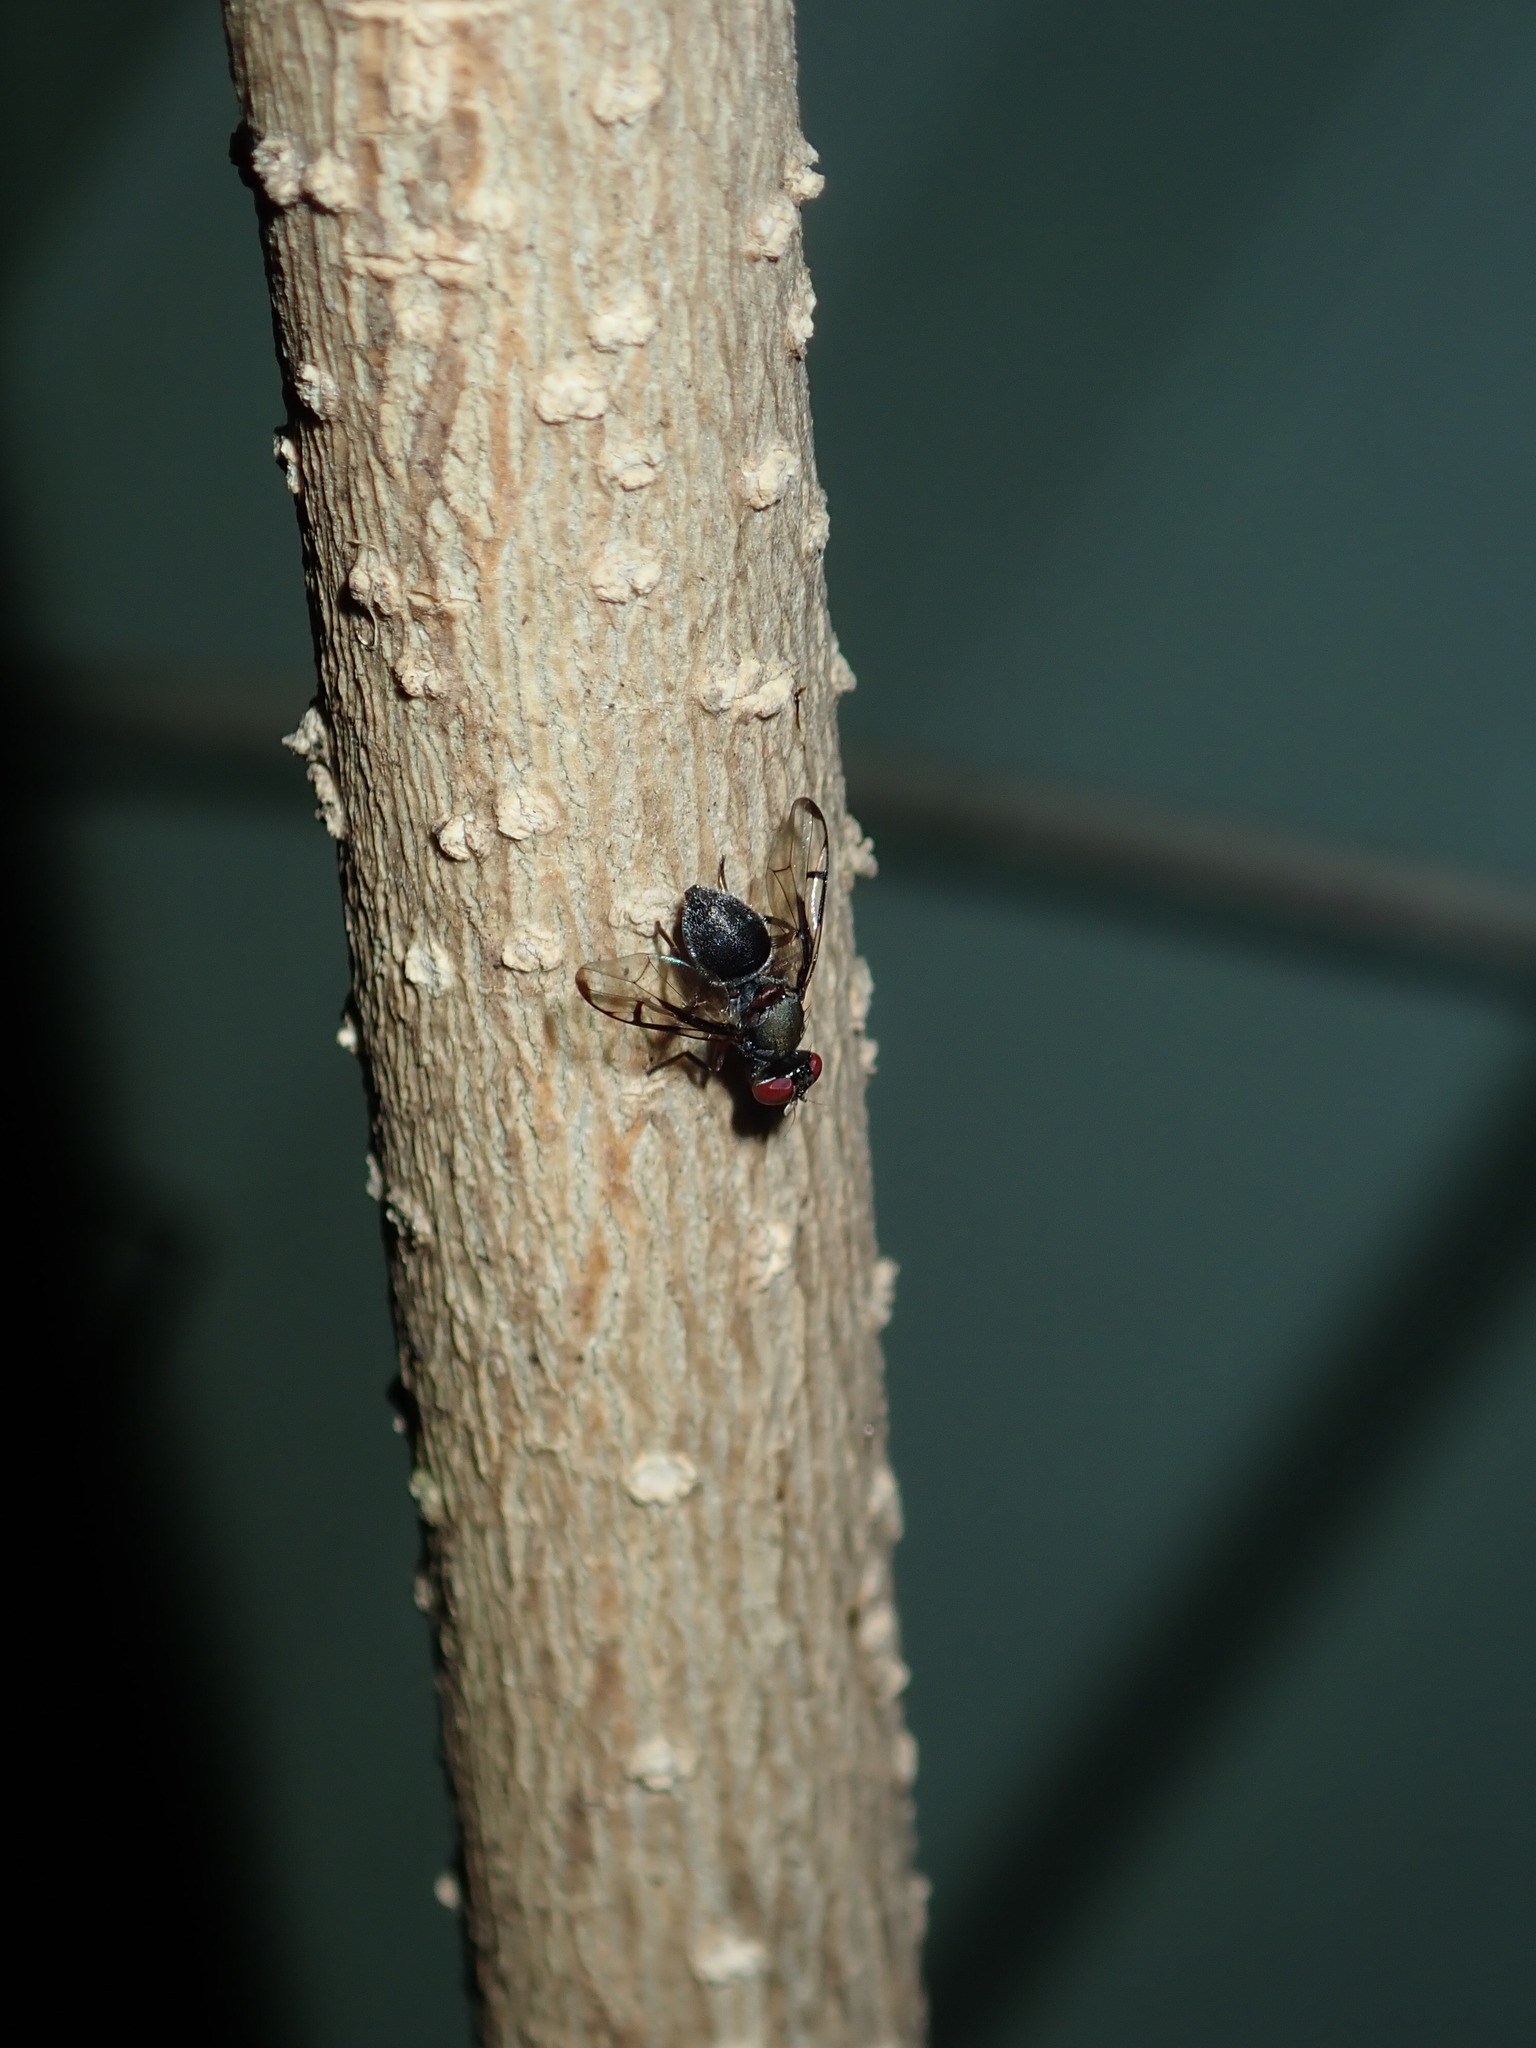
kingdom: Animalia
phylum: Arthropoda
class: Insecta
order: Diptera
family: Platystomatidae
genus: Pogonortalis
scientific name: Pogonortalis doclea
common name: Boatman fly
